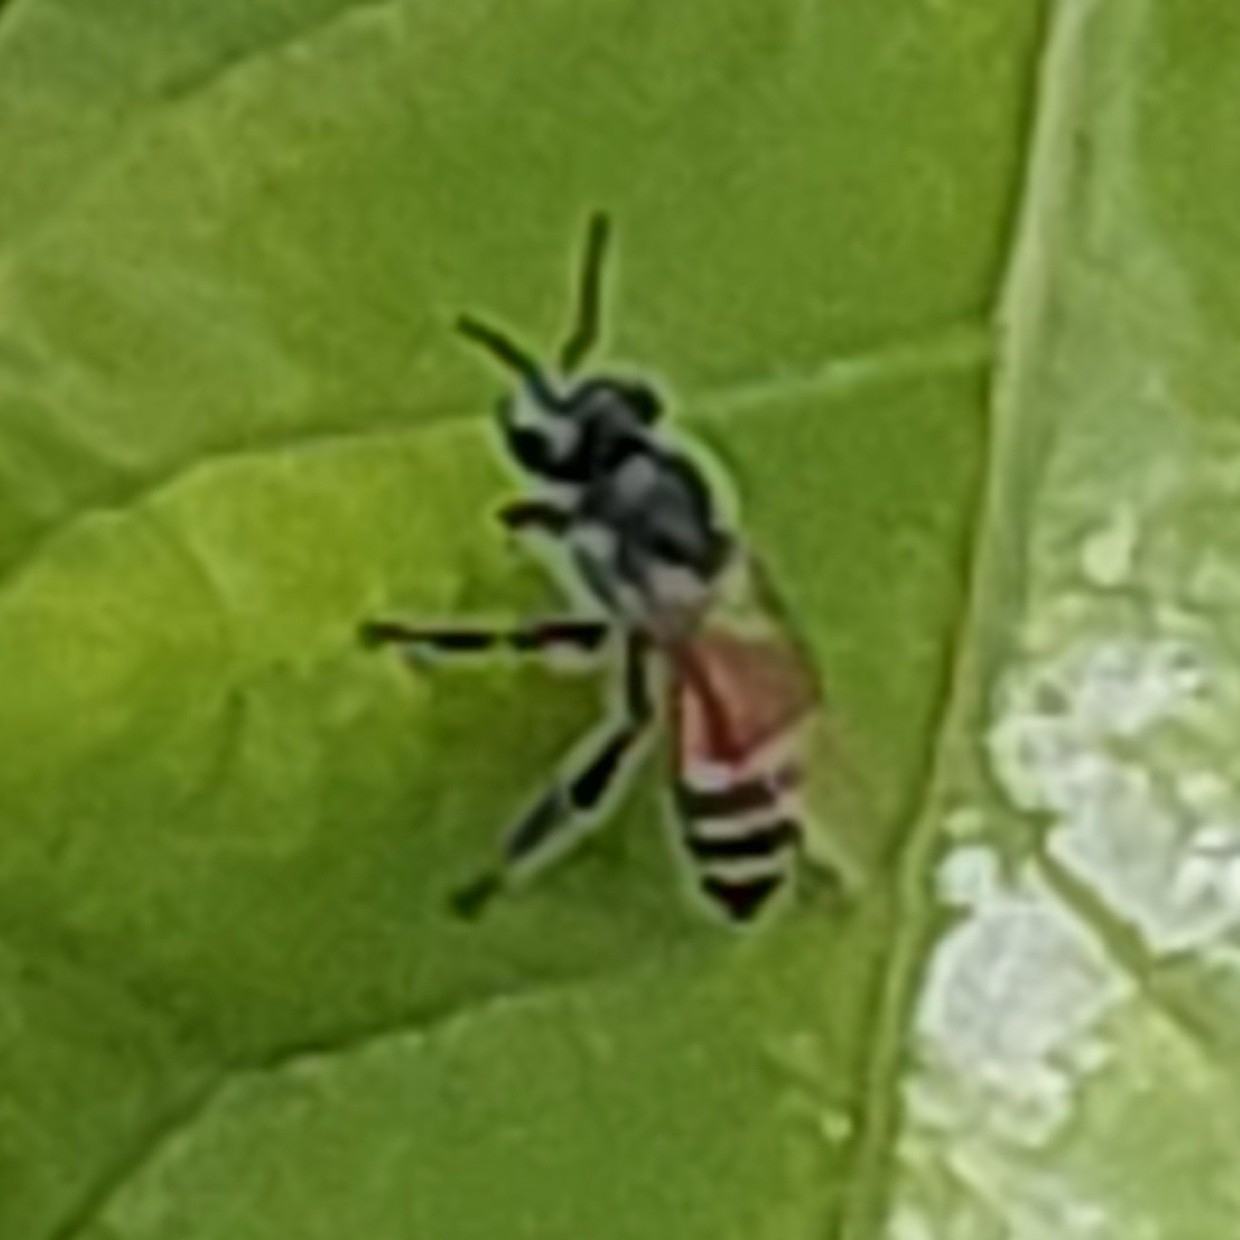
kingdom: Animalia
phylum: Arthropoda
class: Insecta
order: Hymenoptera
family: Apidae
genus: Apis
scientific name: Apis florea
